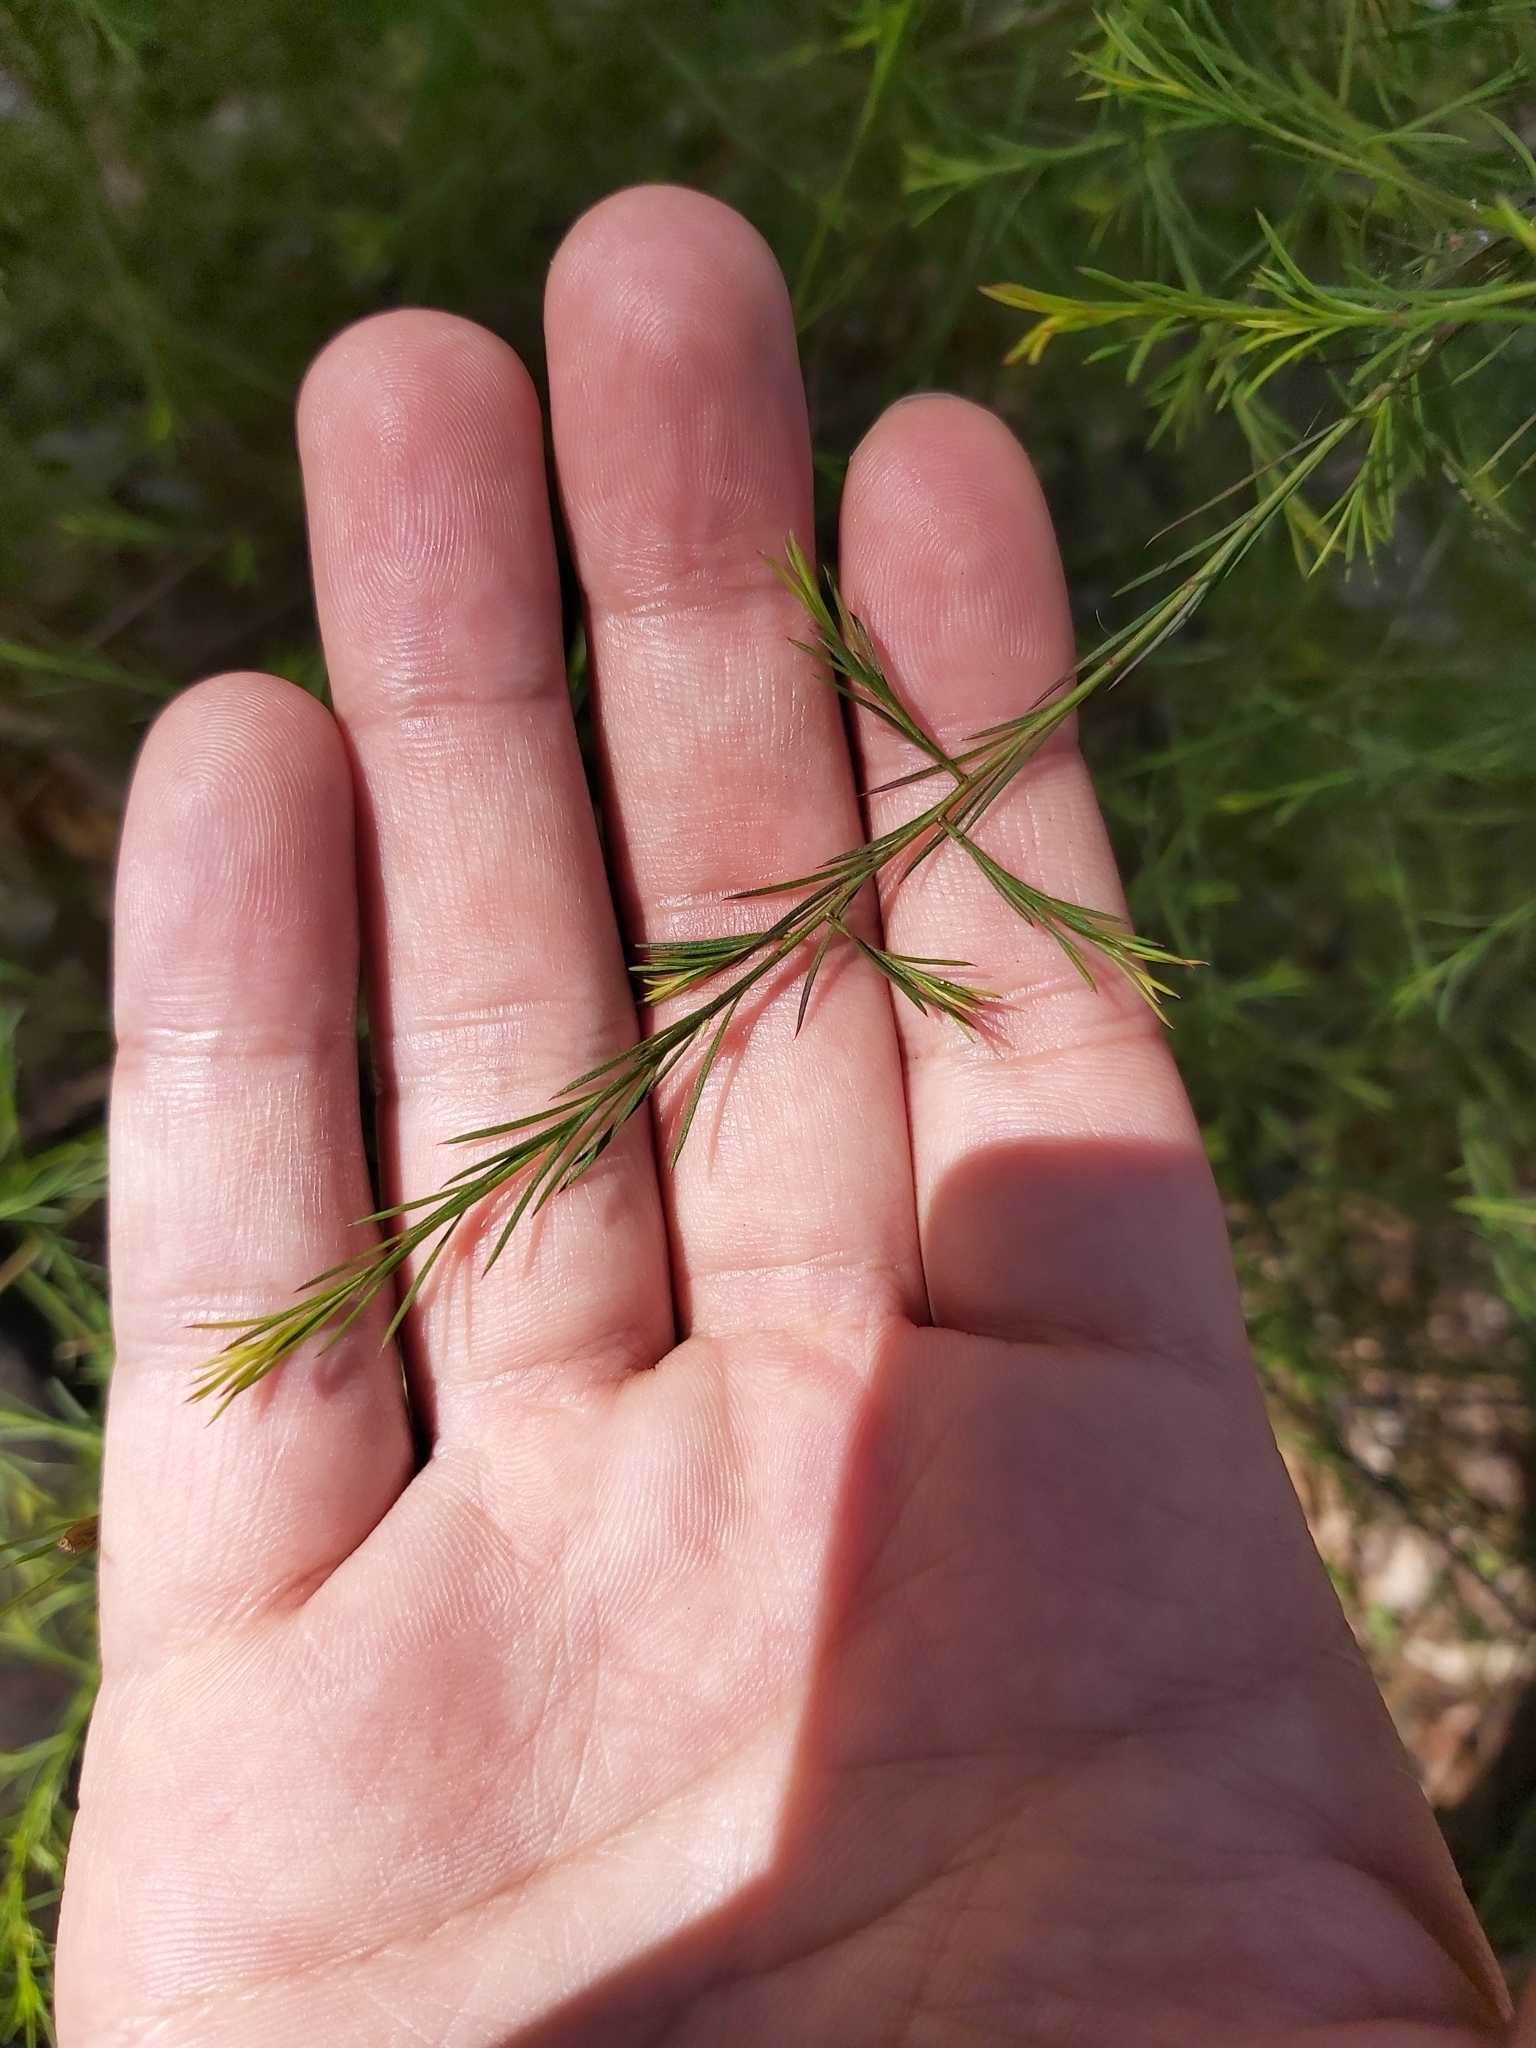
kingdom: Plantae
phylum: Tracheophyta
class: Magnoliopsida
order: Apiales
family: Apiaceae
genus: Platysace
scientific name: Platysace linearifolia
